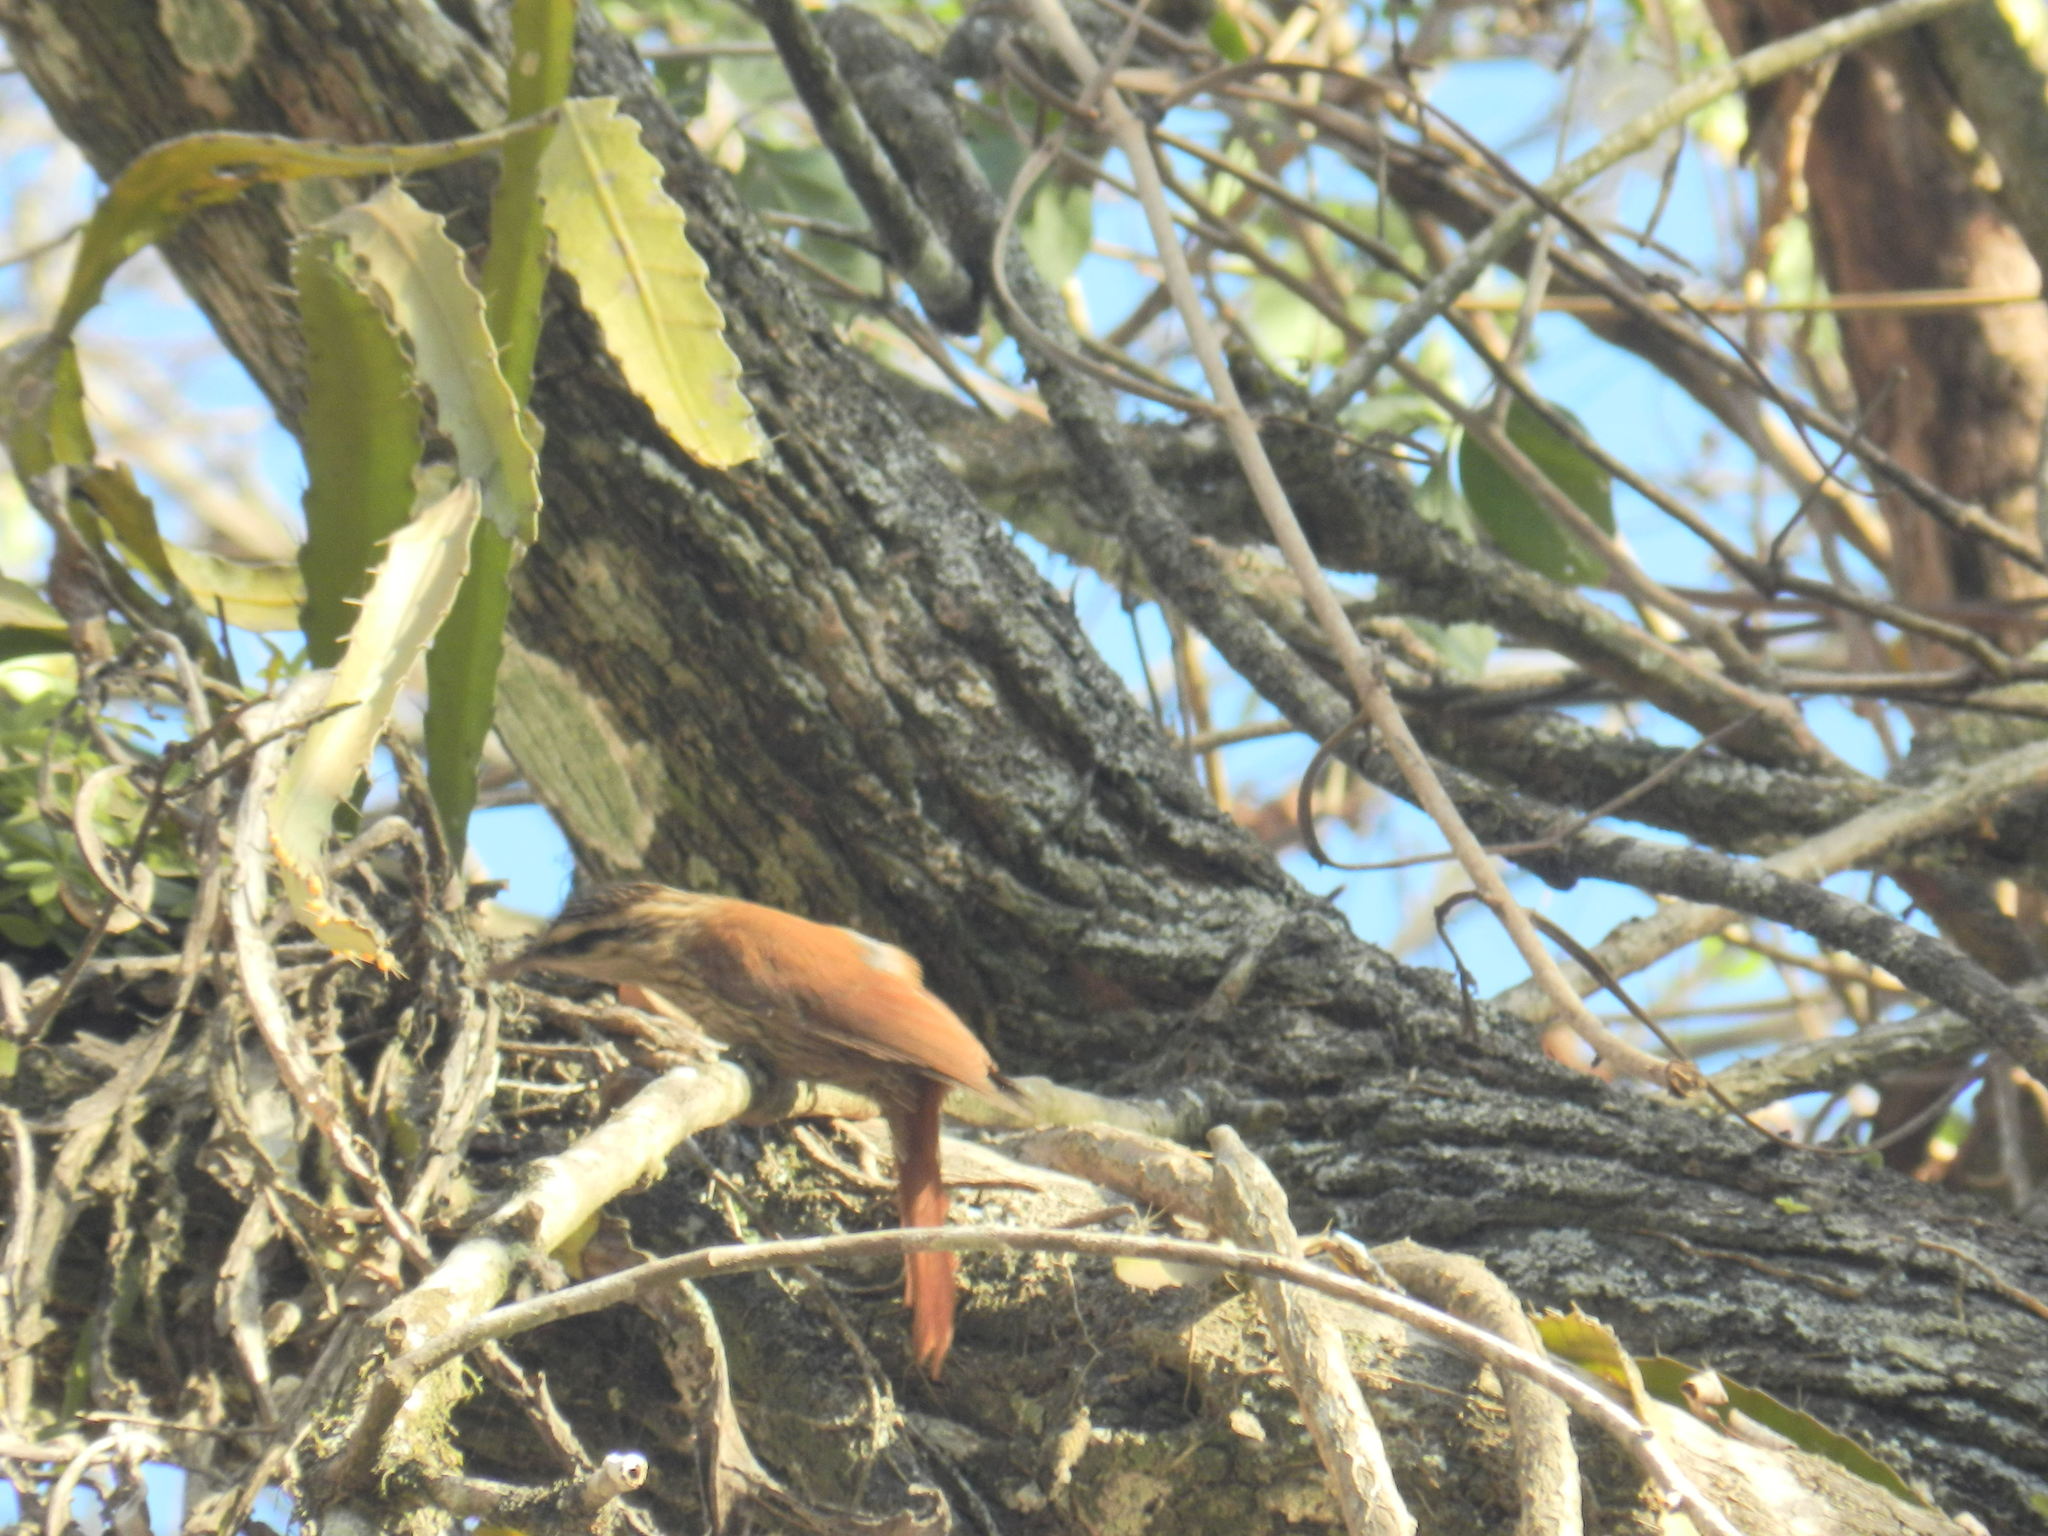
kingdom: Animalia
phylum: Chordata
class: Aves
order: Passeriformes
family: Furnariidae
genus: Lepidocolaptes
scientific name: Lepidocolaptes angustirostris
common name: Narrow-billed woodcreeper
